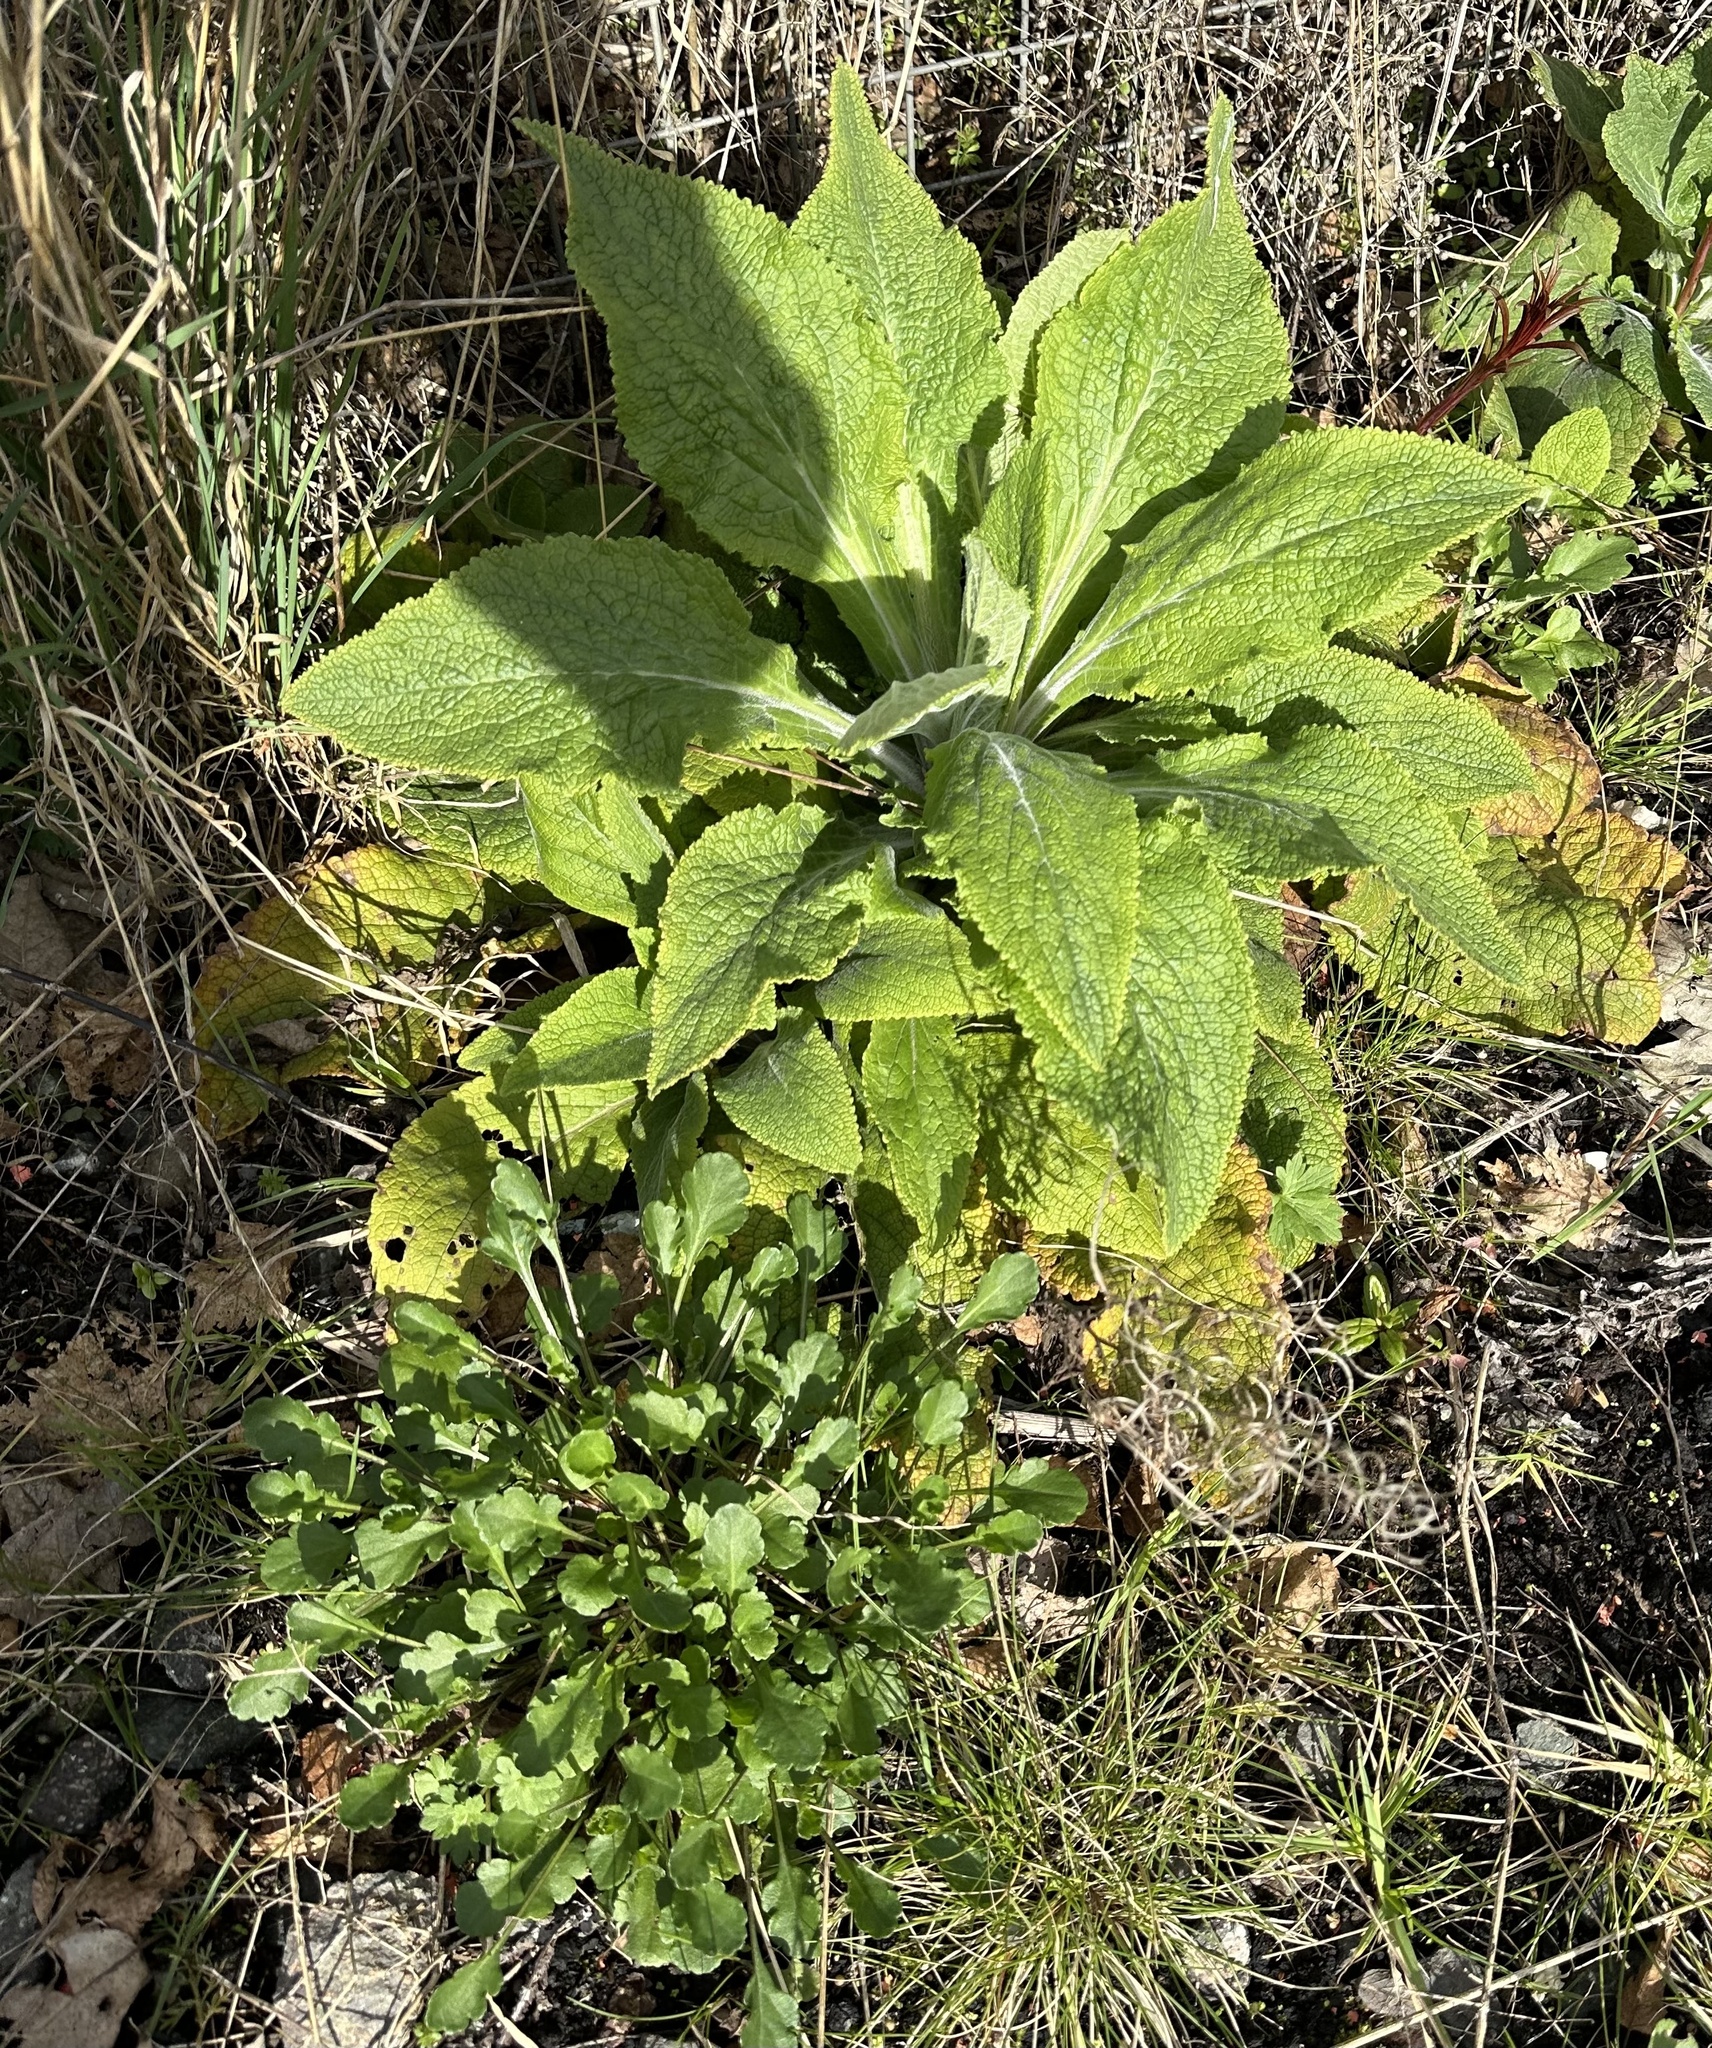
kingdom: Plantae
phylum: Tracheophyta
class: Magnoliopsida
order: Lamiales
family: Plantaginaceae
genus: Digitalis
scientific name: Digitalis purpurea
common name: Foxglove
